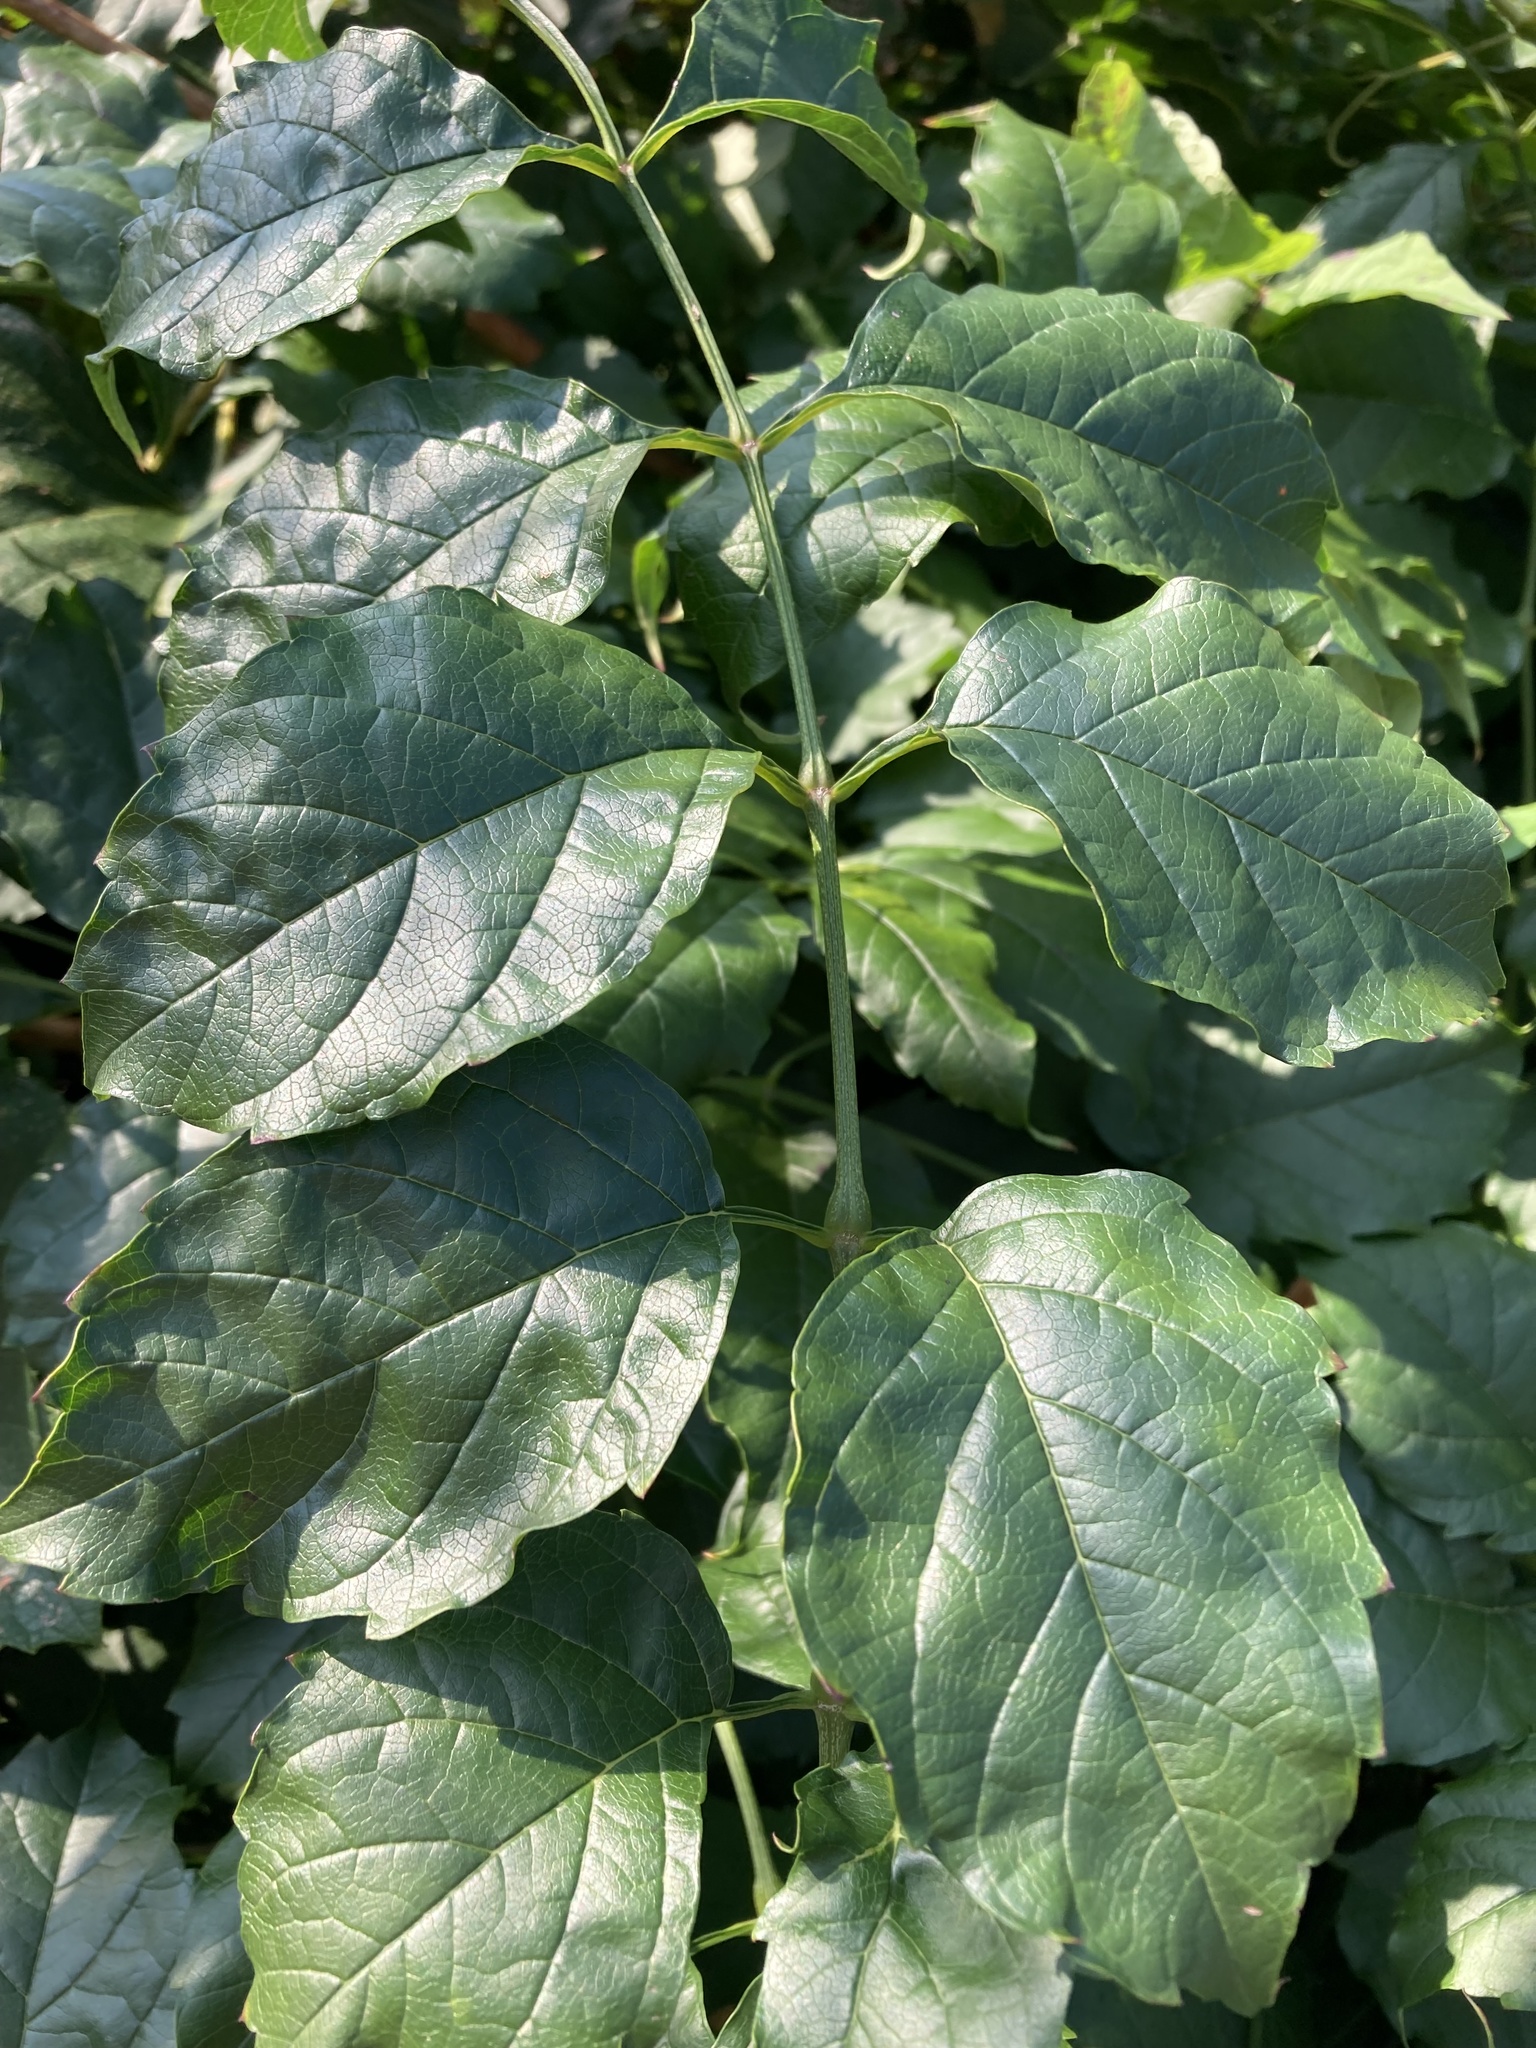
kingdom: Plantae
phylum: Tracheophyta
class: Magnoliopsida
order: Lamiales
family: Bignoniaceae
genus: Campsis
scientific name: Campsis radicans
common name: Trumpet-creeper
